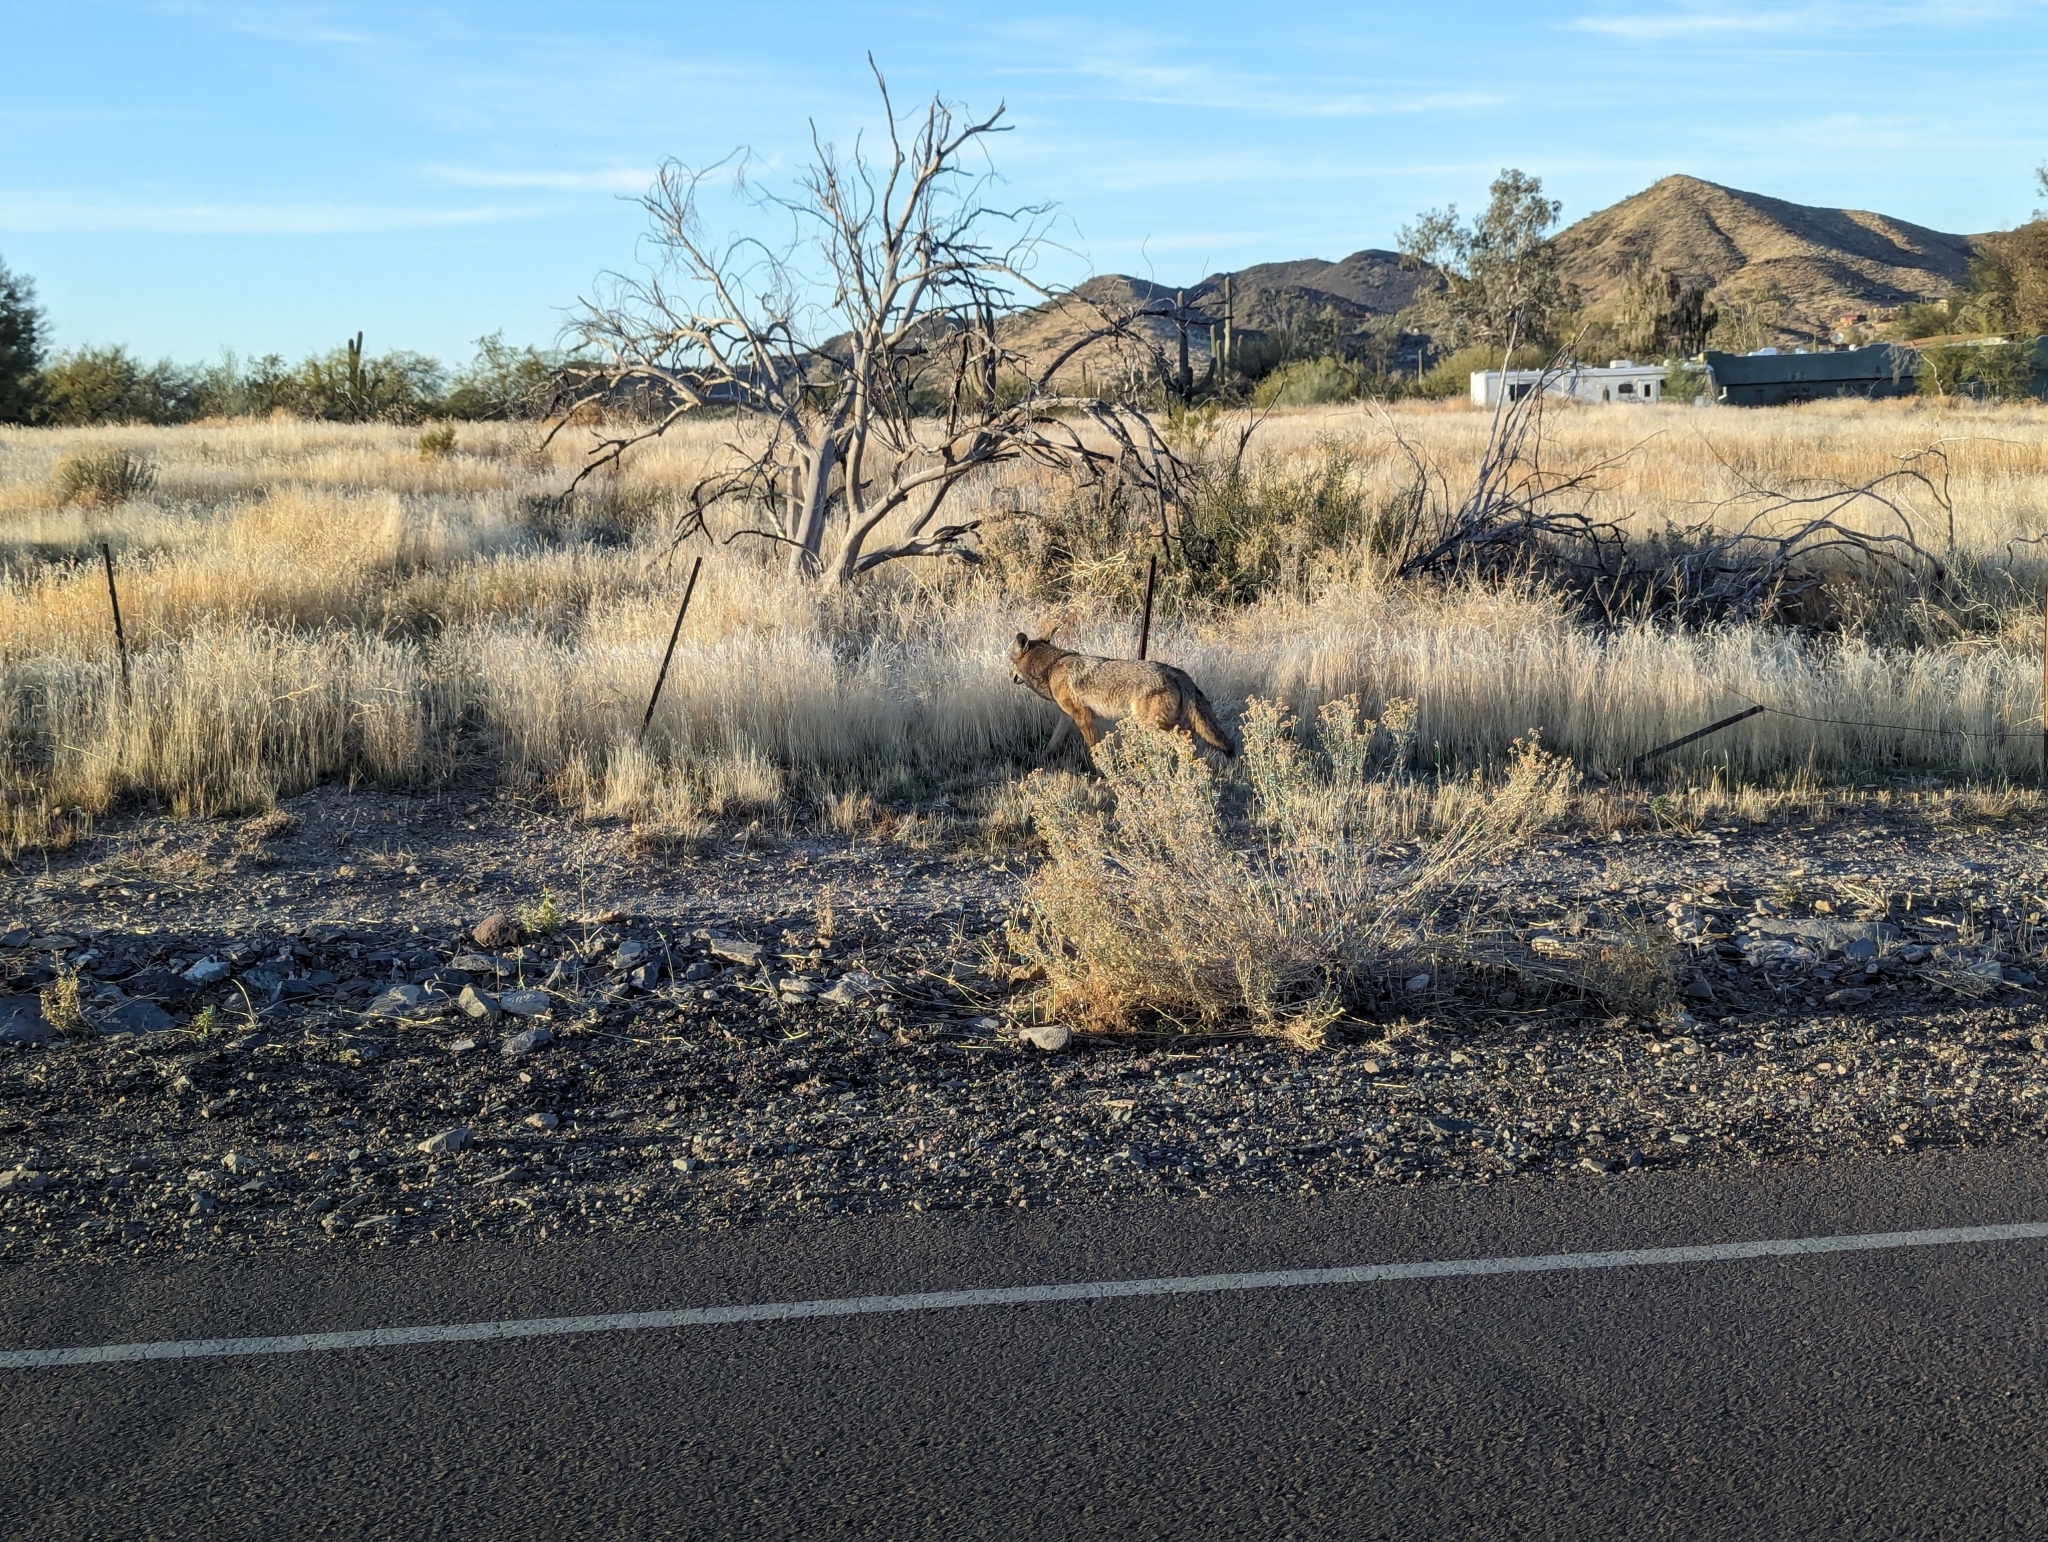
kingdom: Animalia
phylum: Chordata
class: Mammalia
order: Carnivora
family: Canidae
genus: Canis
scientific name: Canis latrans
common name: Coyote
